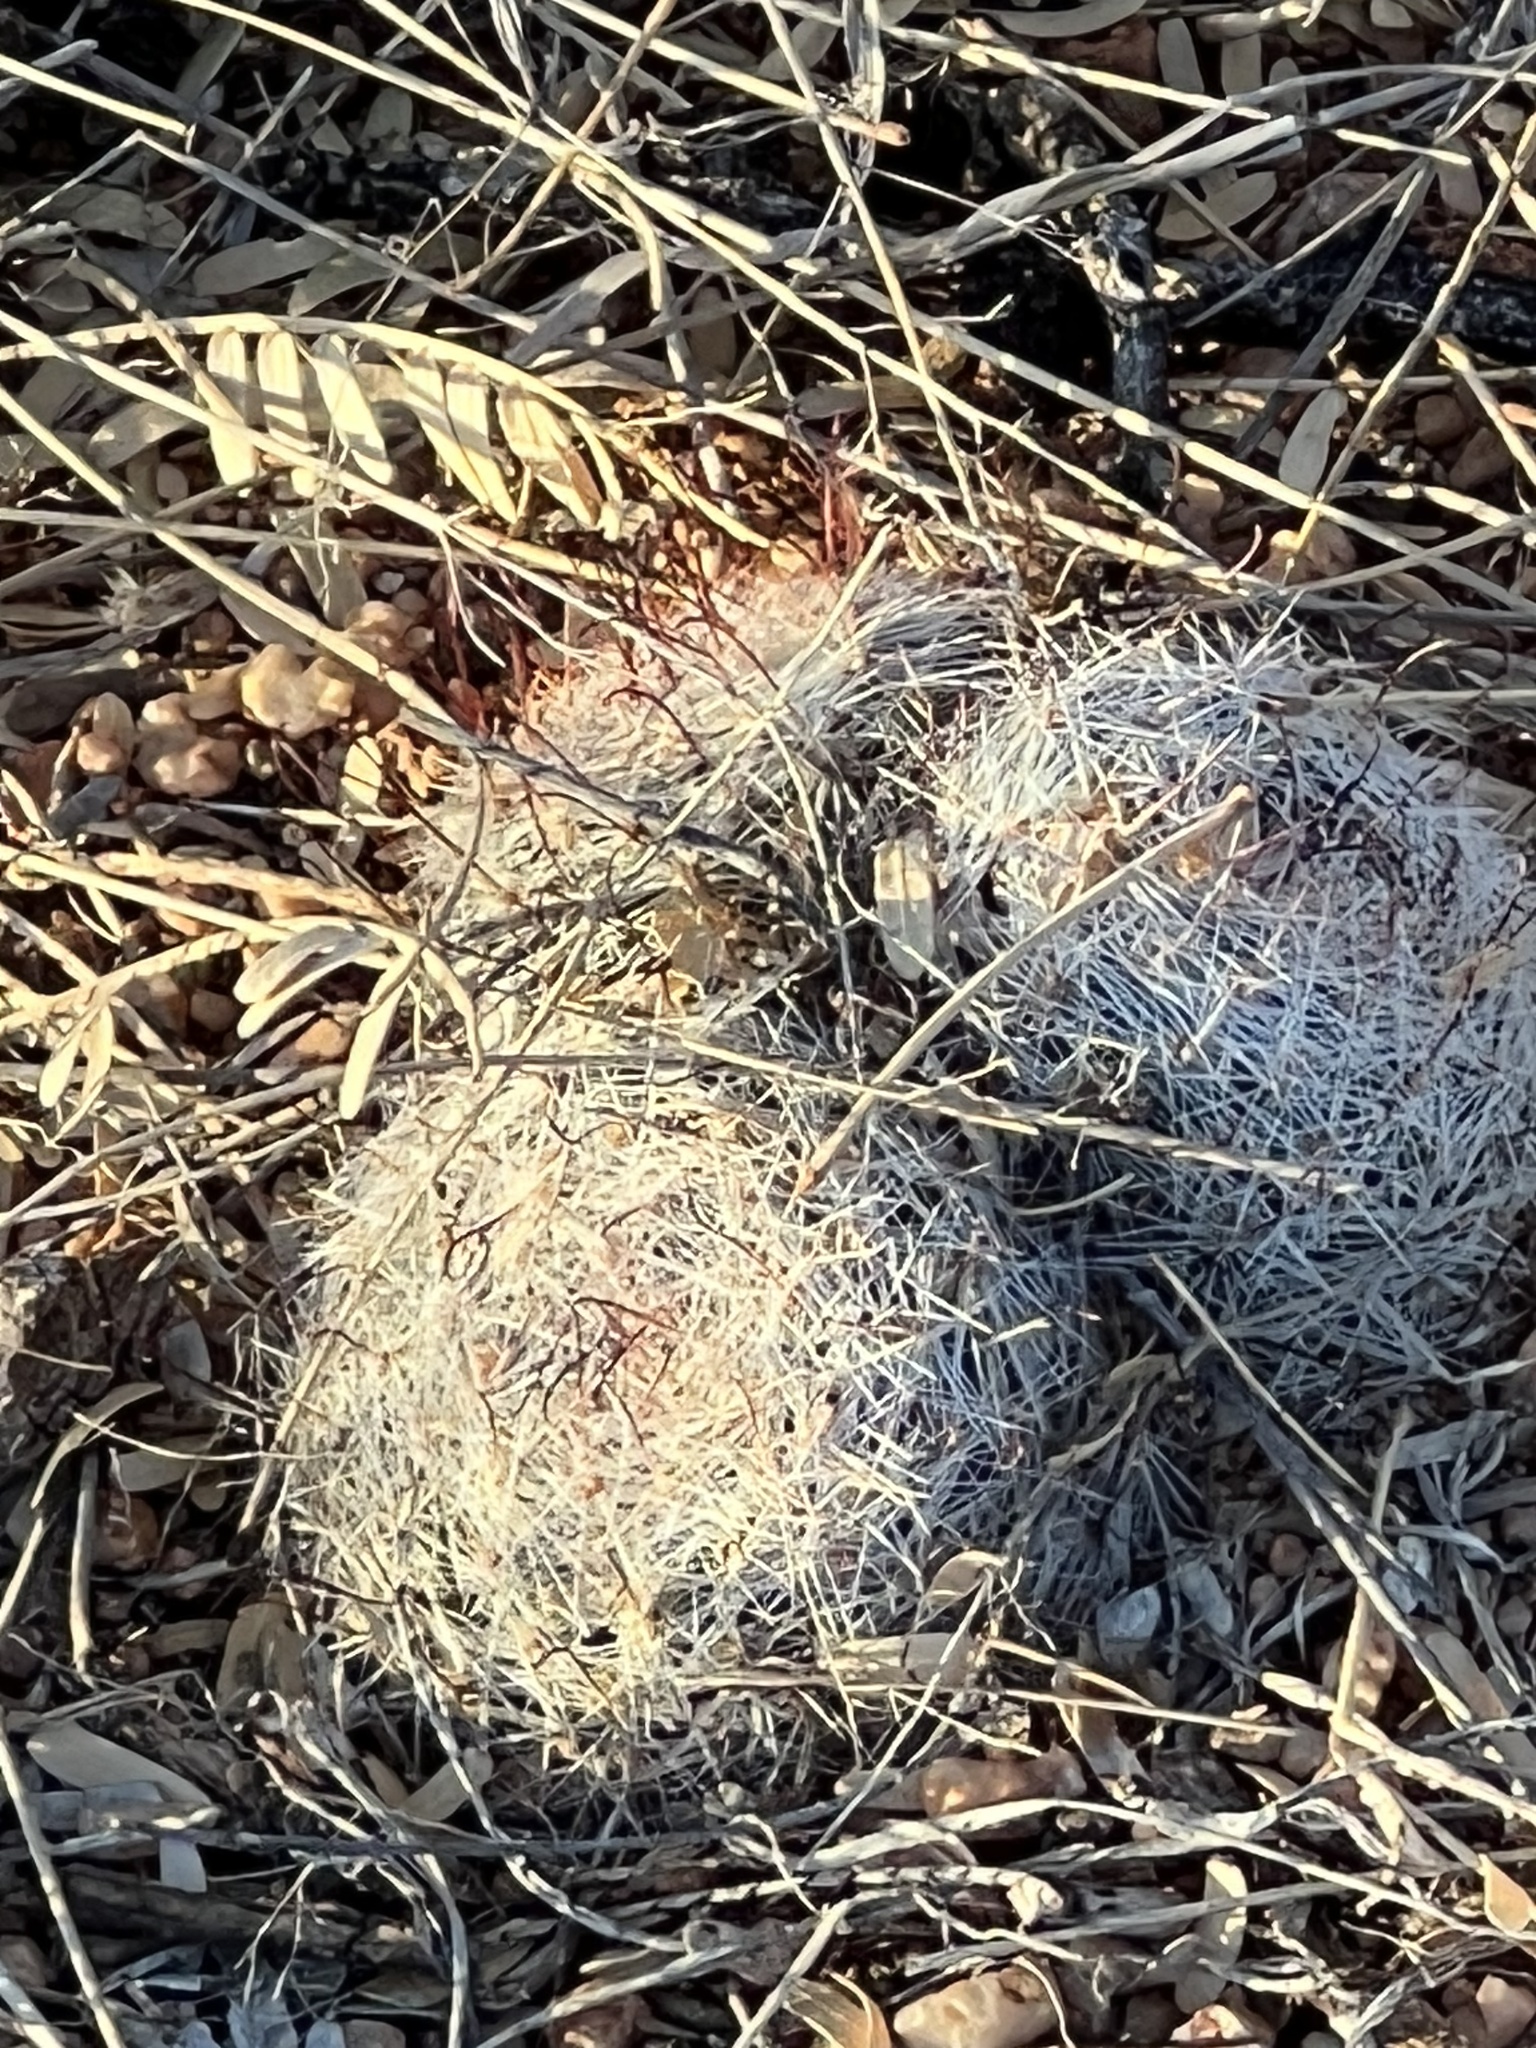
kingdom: Plantae
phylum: Tracheophyta
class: Magnoliopsida
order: Caryophyllales
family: Cactaceae
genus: Cochemiea
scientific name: Cochemiea grahamii
